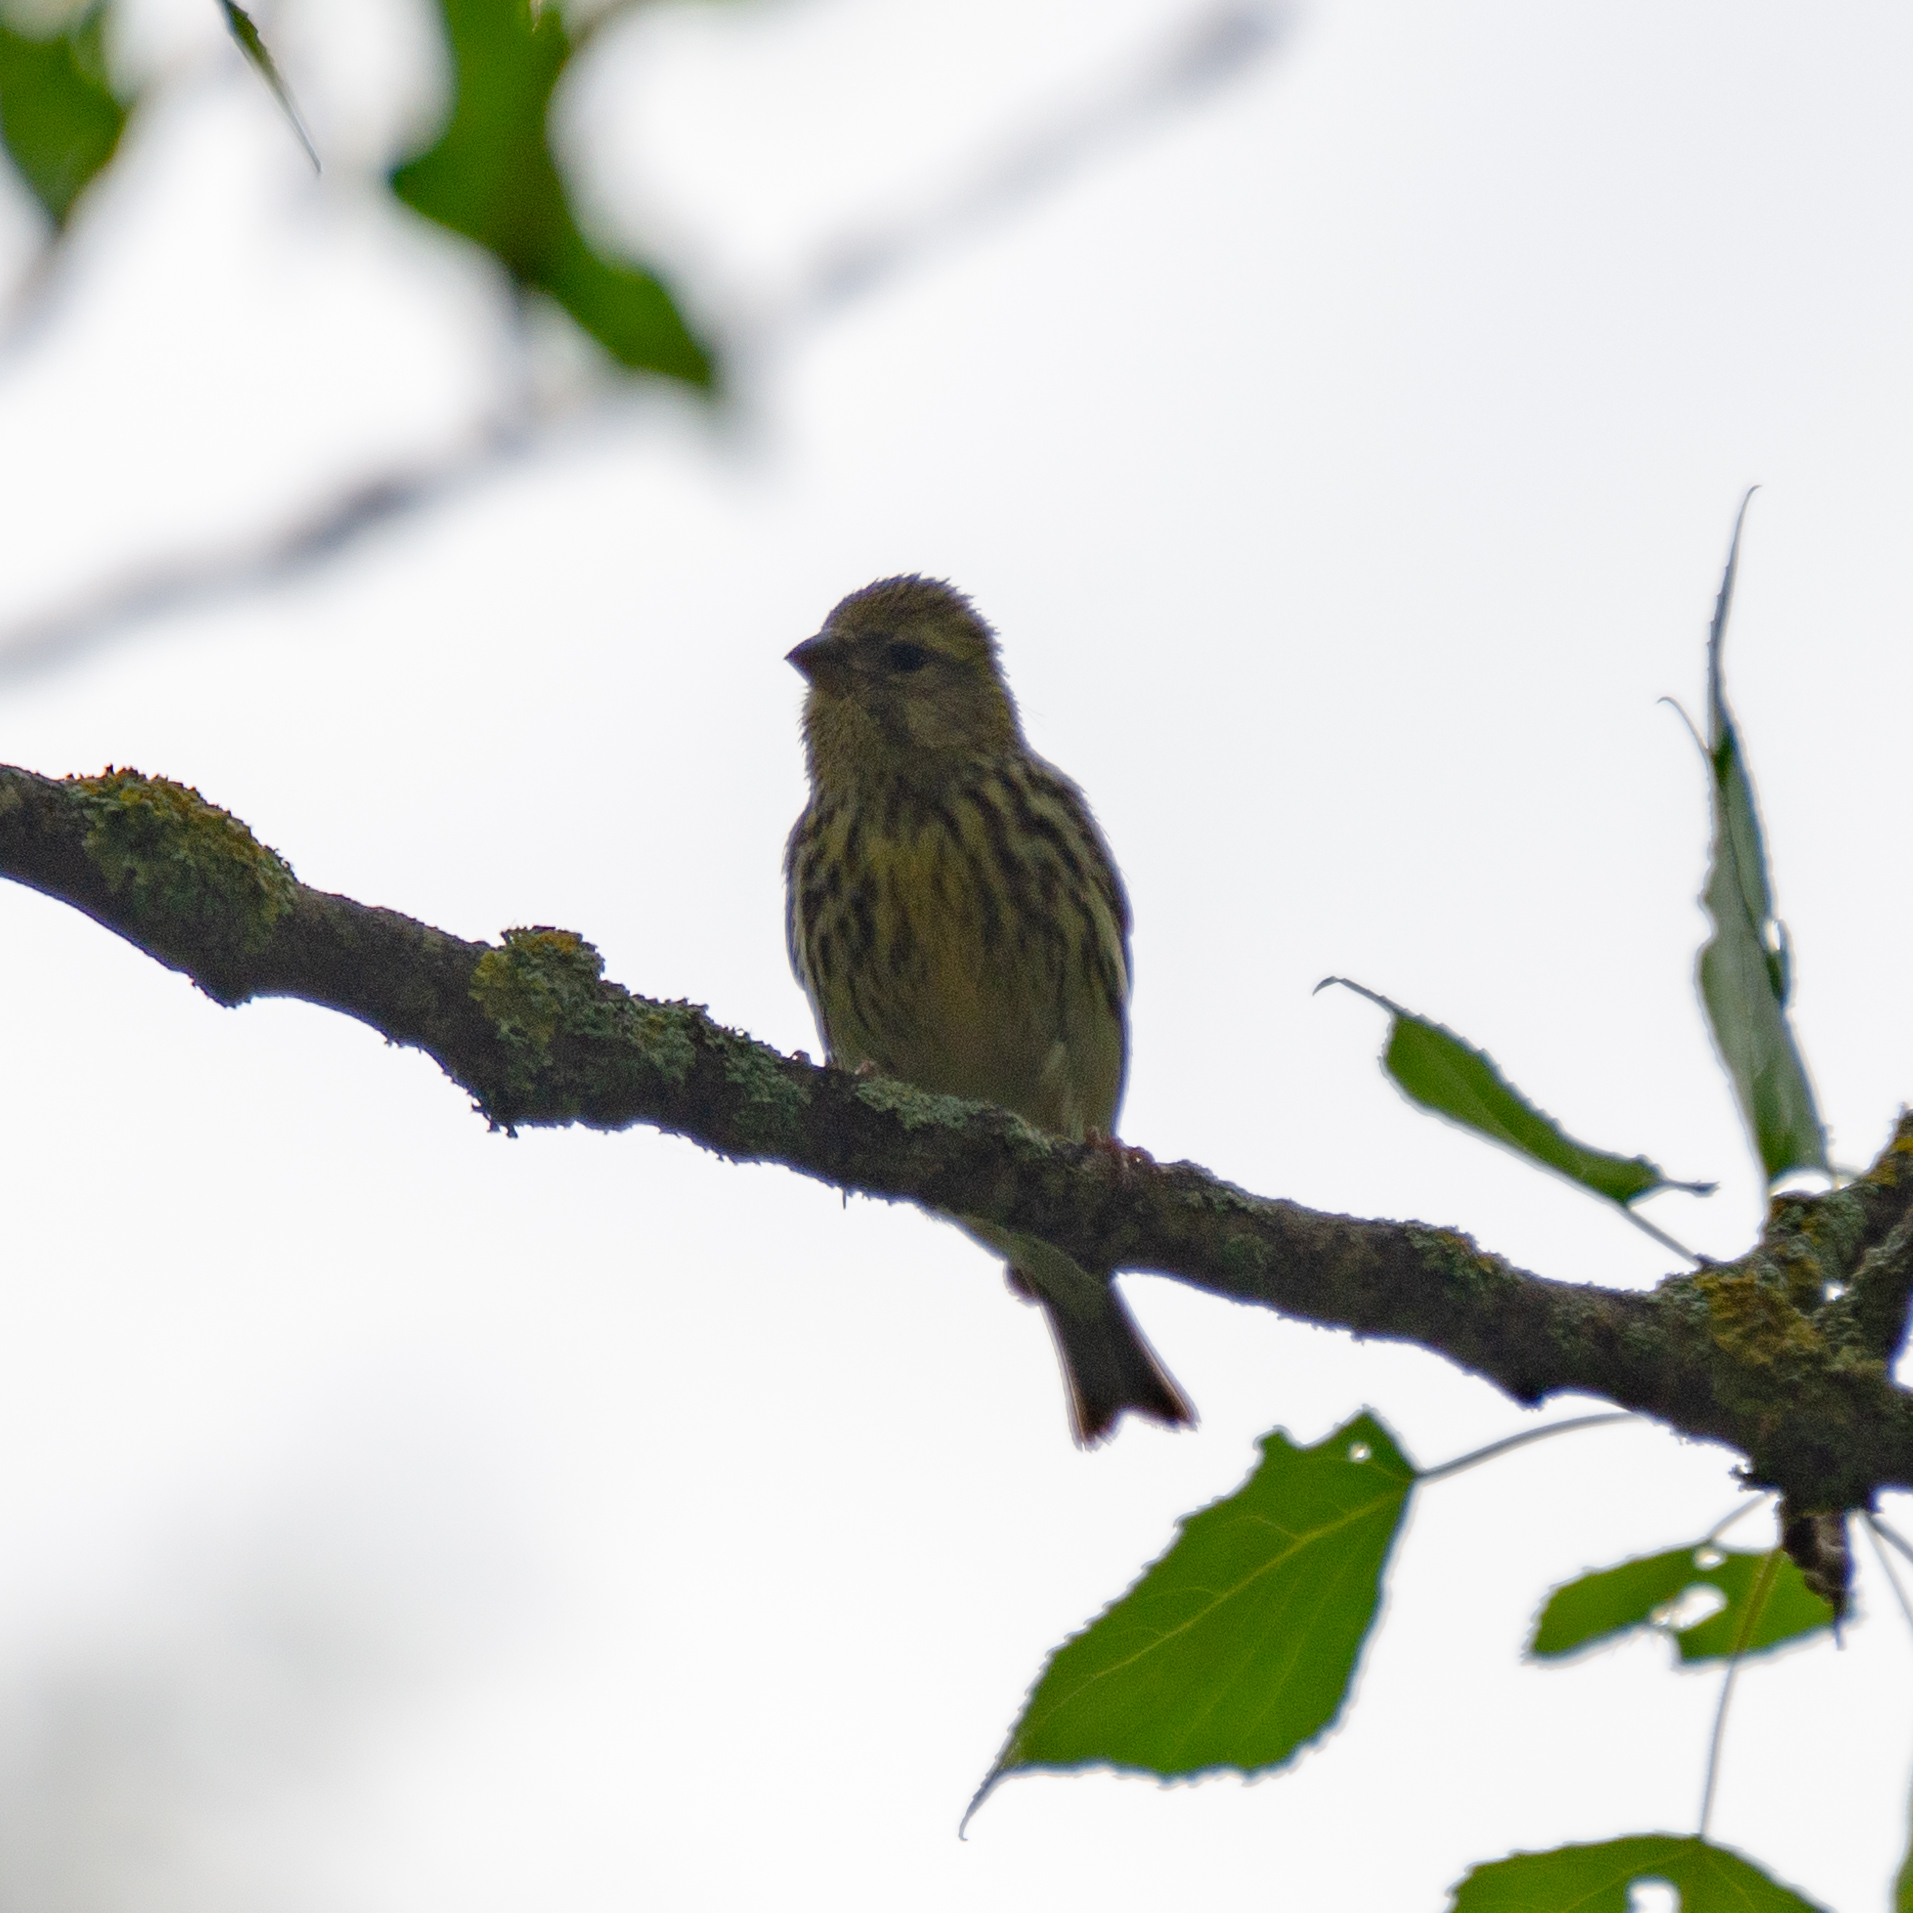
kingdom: Animalia
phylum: Chordata
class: Aves
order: Passeriformes
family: Fringillidae
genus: Serinus
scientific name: Serinus serinus
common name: European serin
